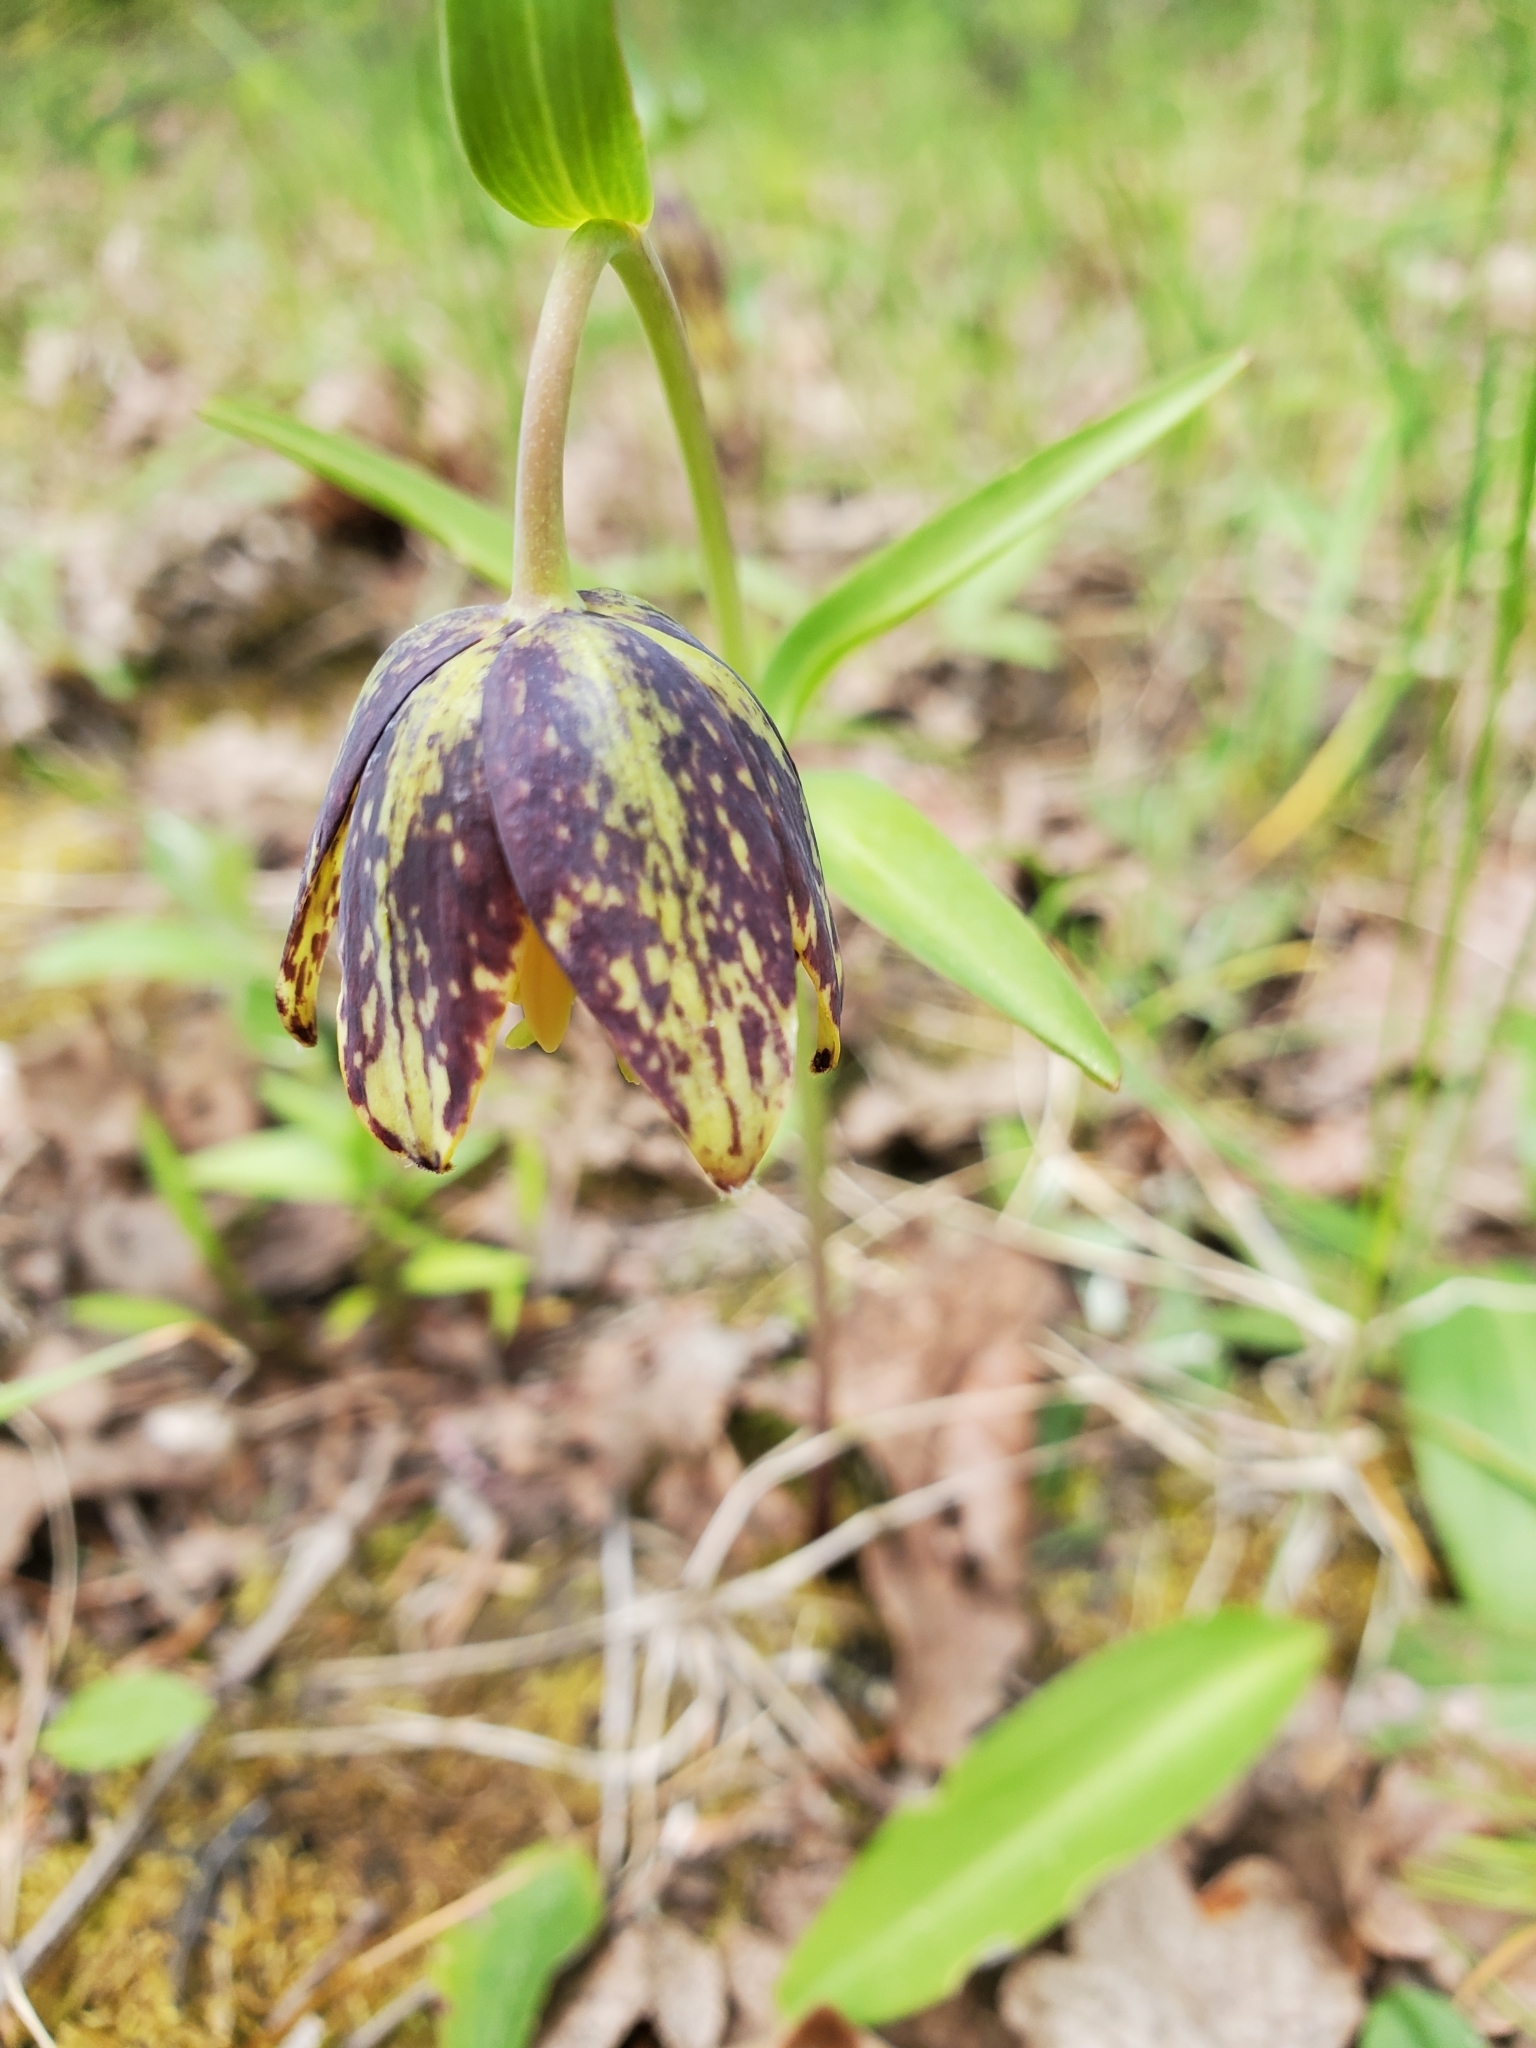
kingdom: Plantae
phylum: Tracheophyta
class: Liliopsida
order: Liliales
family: Liliaceae
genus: Fritillaria
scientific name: Fritillaria affinis
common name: Ojai fritillary
